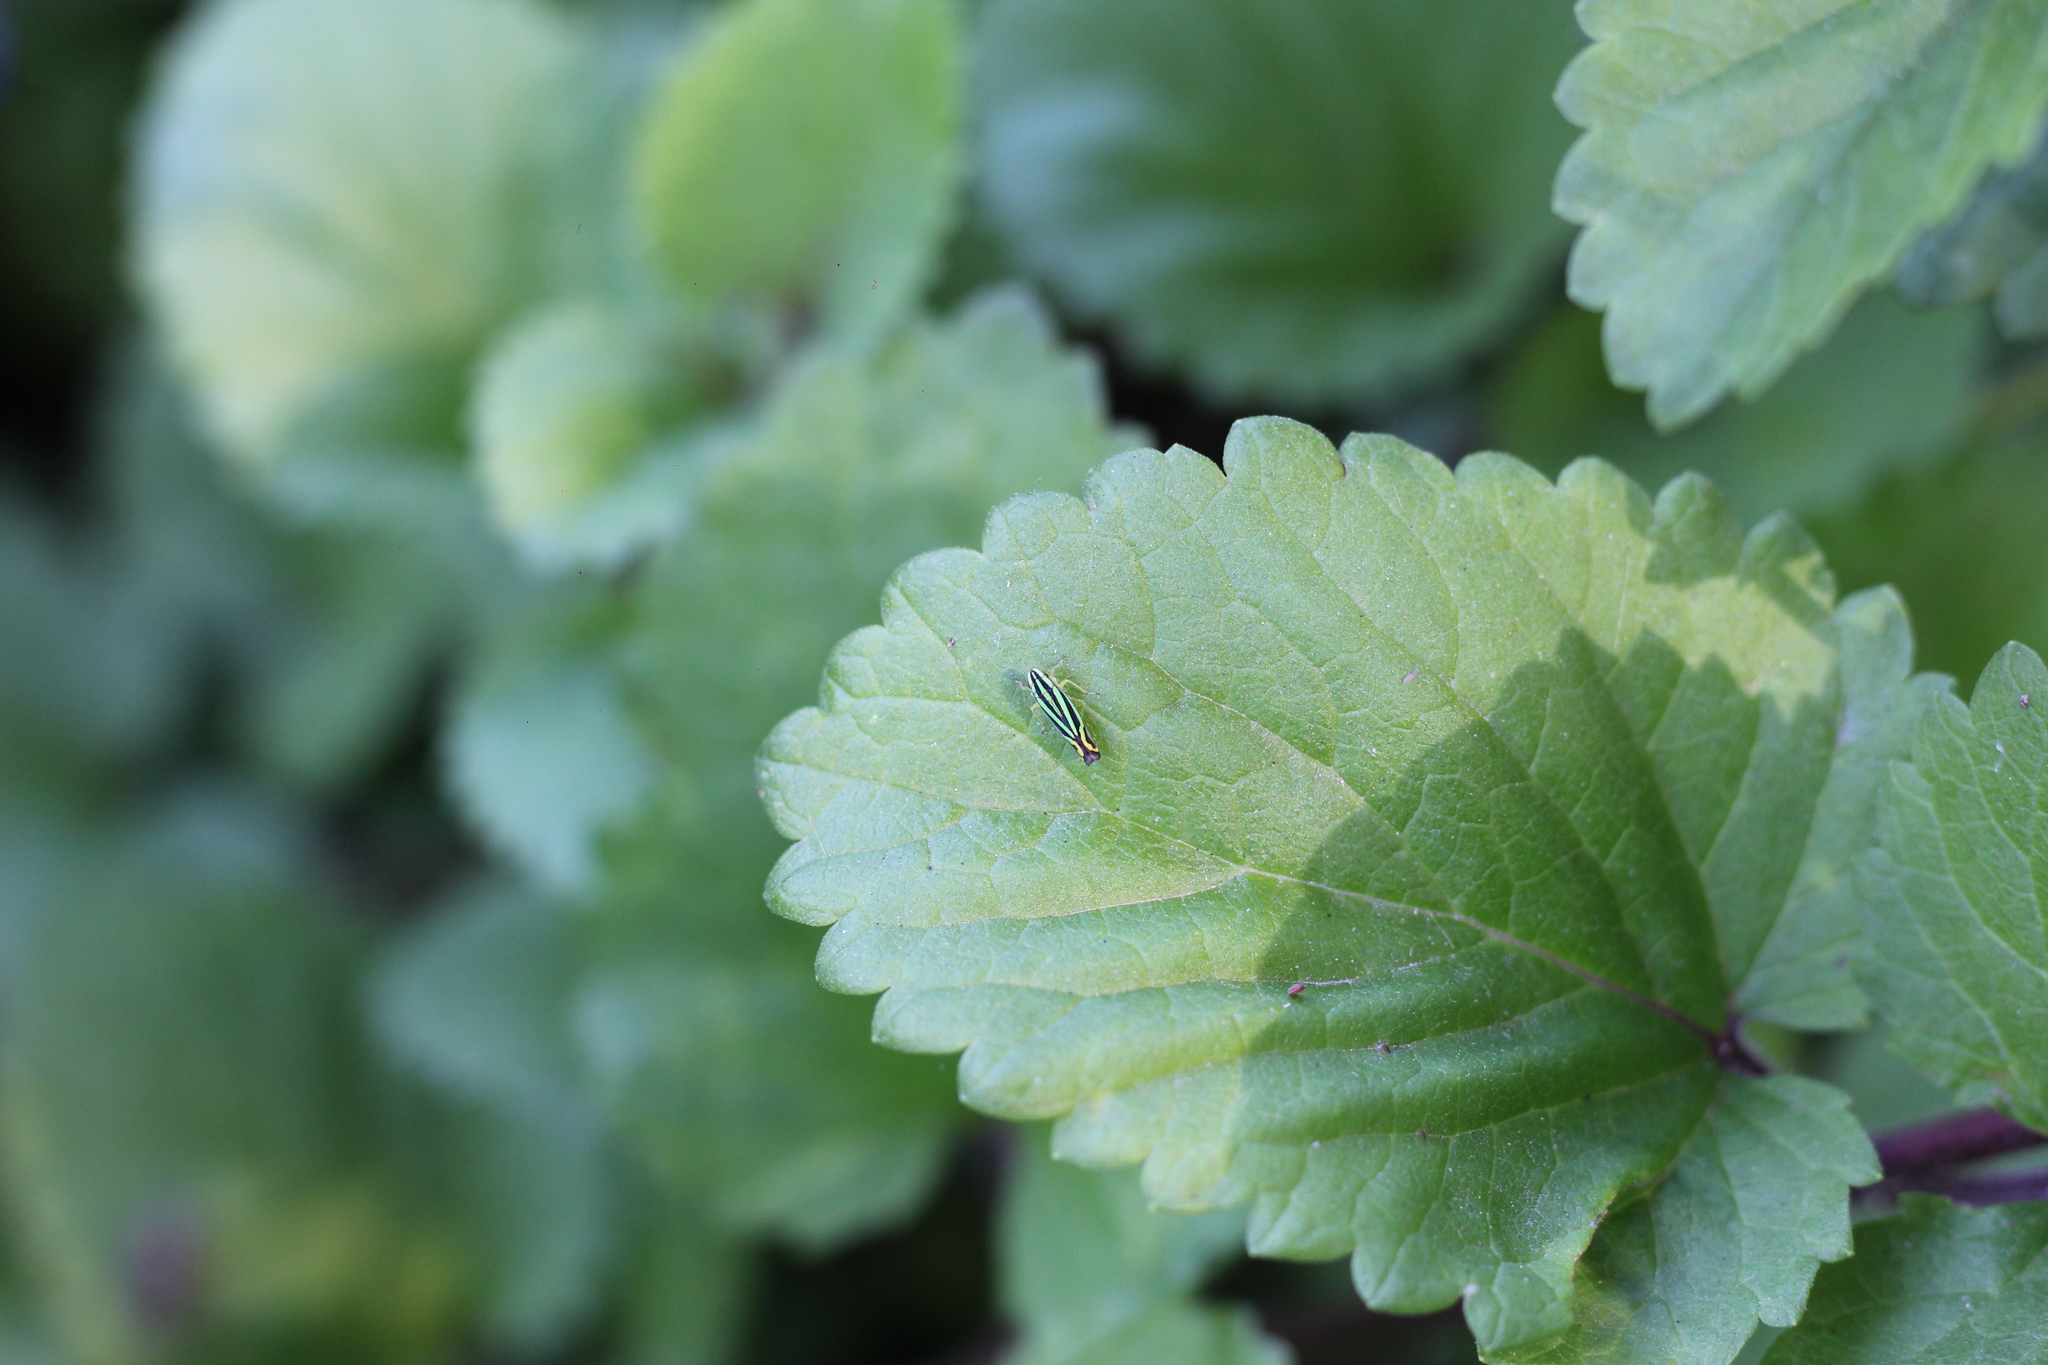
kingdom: Animalia
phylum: Arthropoda
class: Insecta
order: Hemiptera
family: Cicadellidae
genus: Sibovia
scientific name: Sibovia sagata
